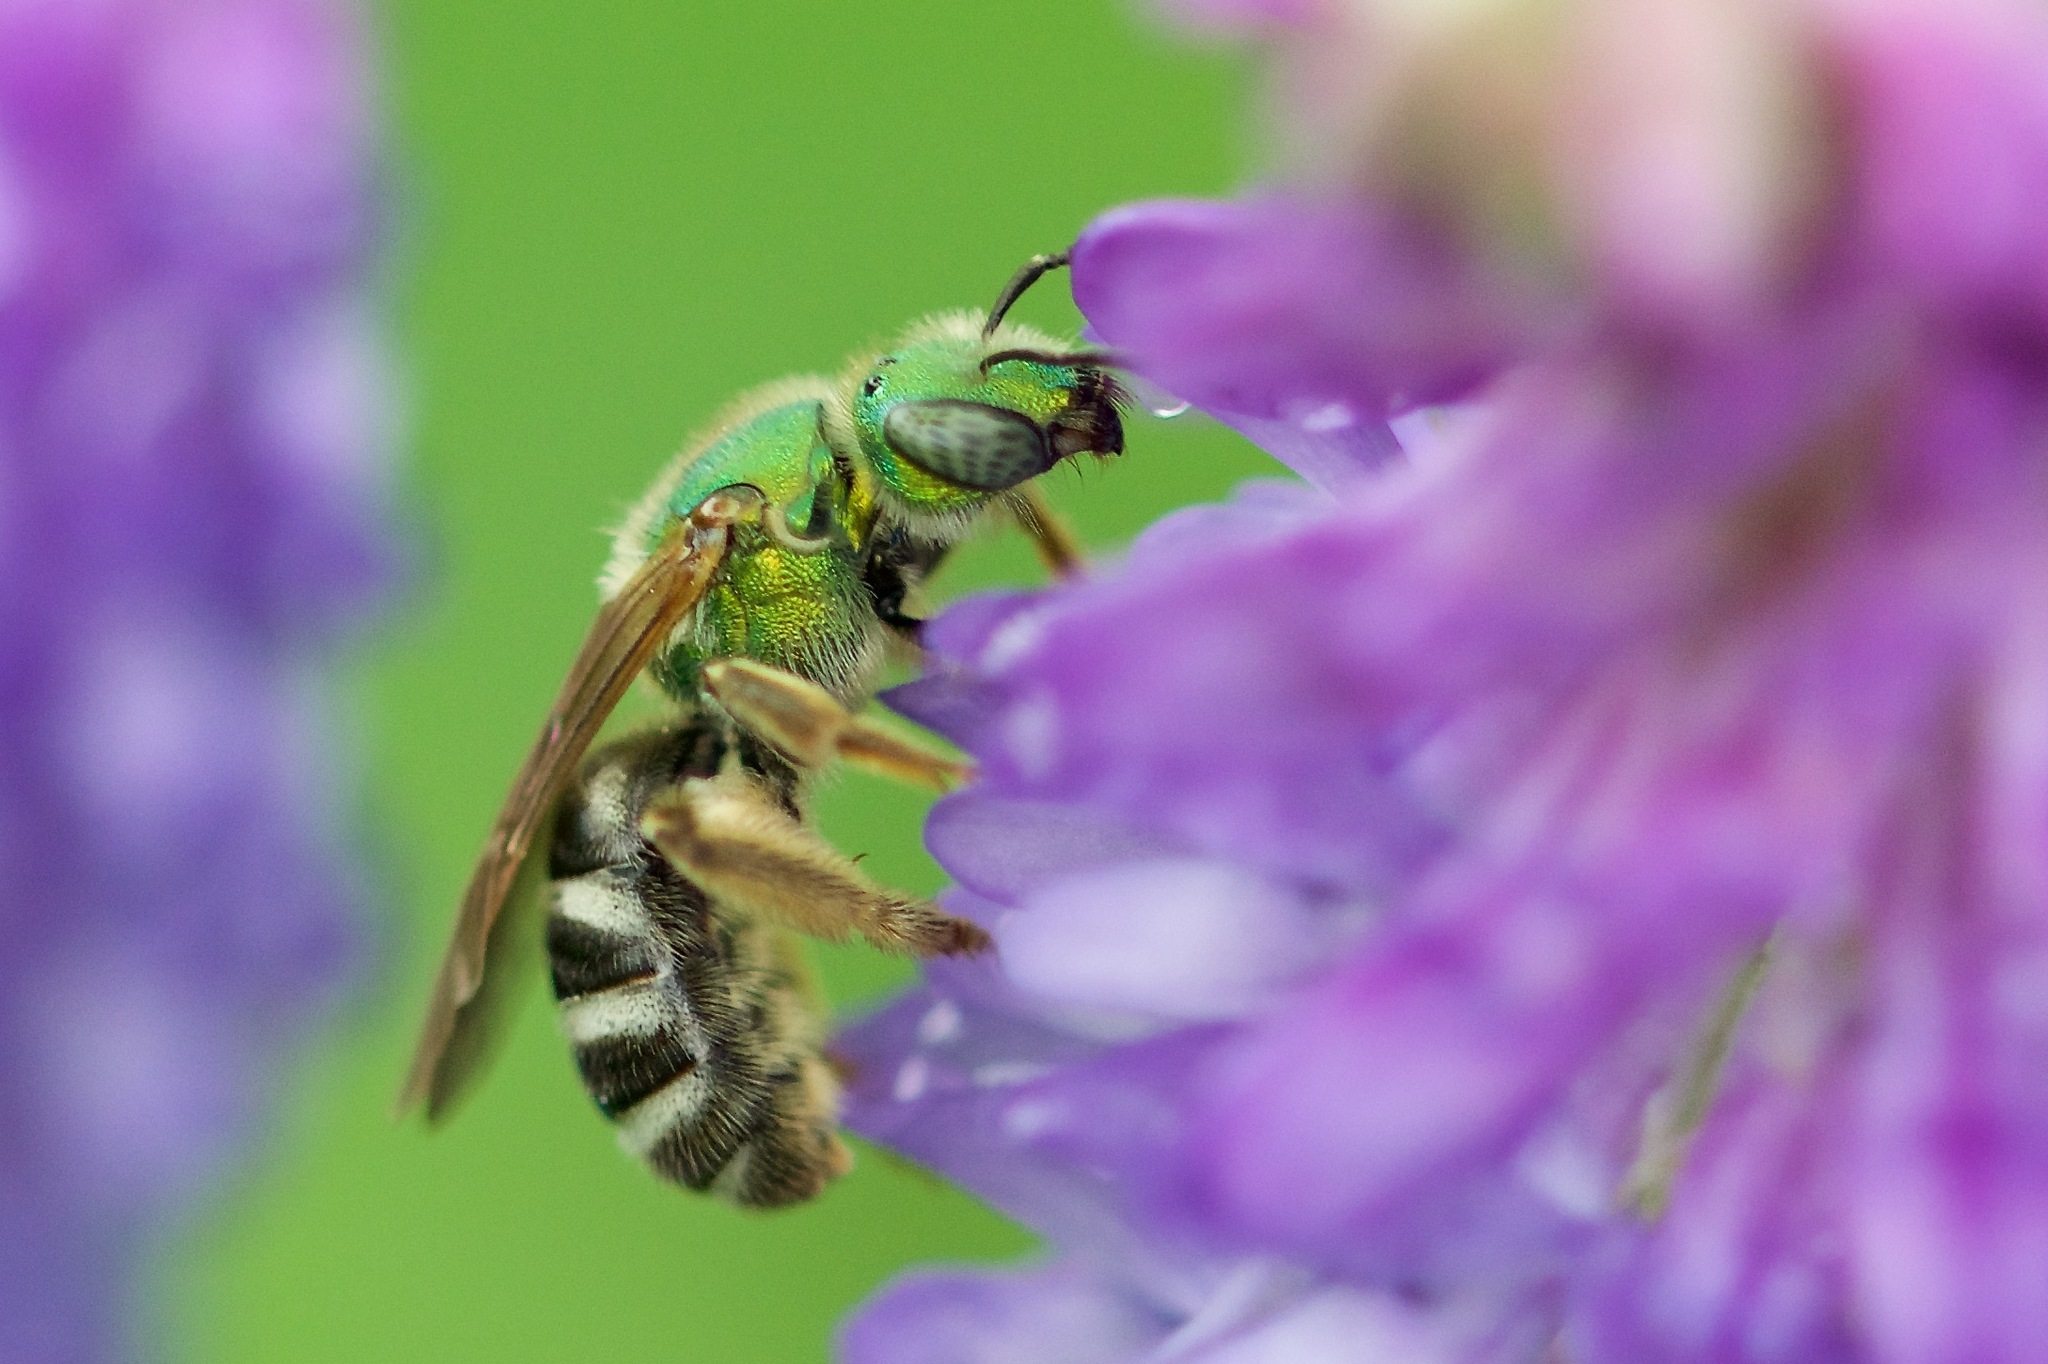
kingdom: Animalia
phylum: Arthropoda
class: Insecta
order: Hymenoptera
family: Halictidae
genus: Agapostemon
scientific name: Agapostemon virescens
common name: Bicolored striped sweat bee
